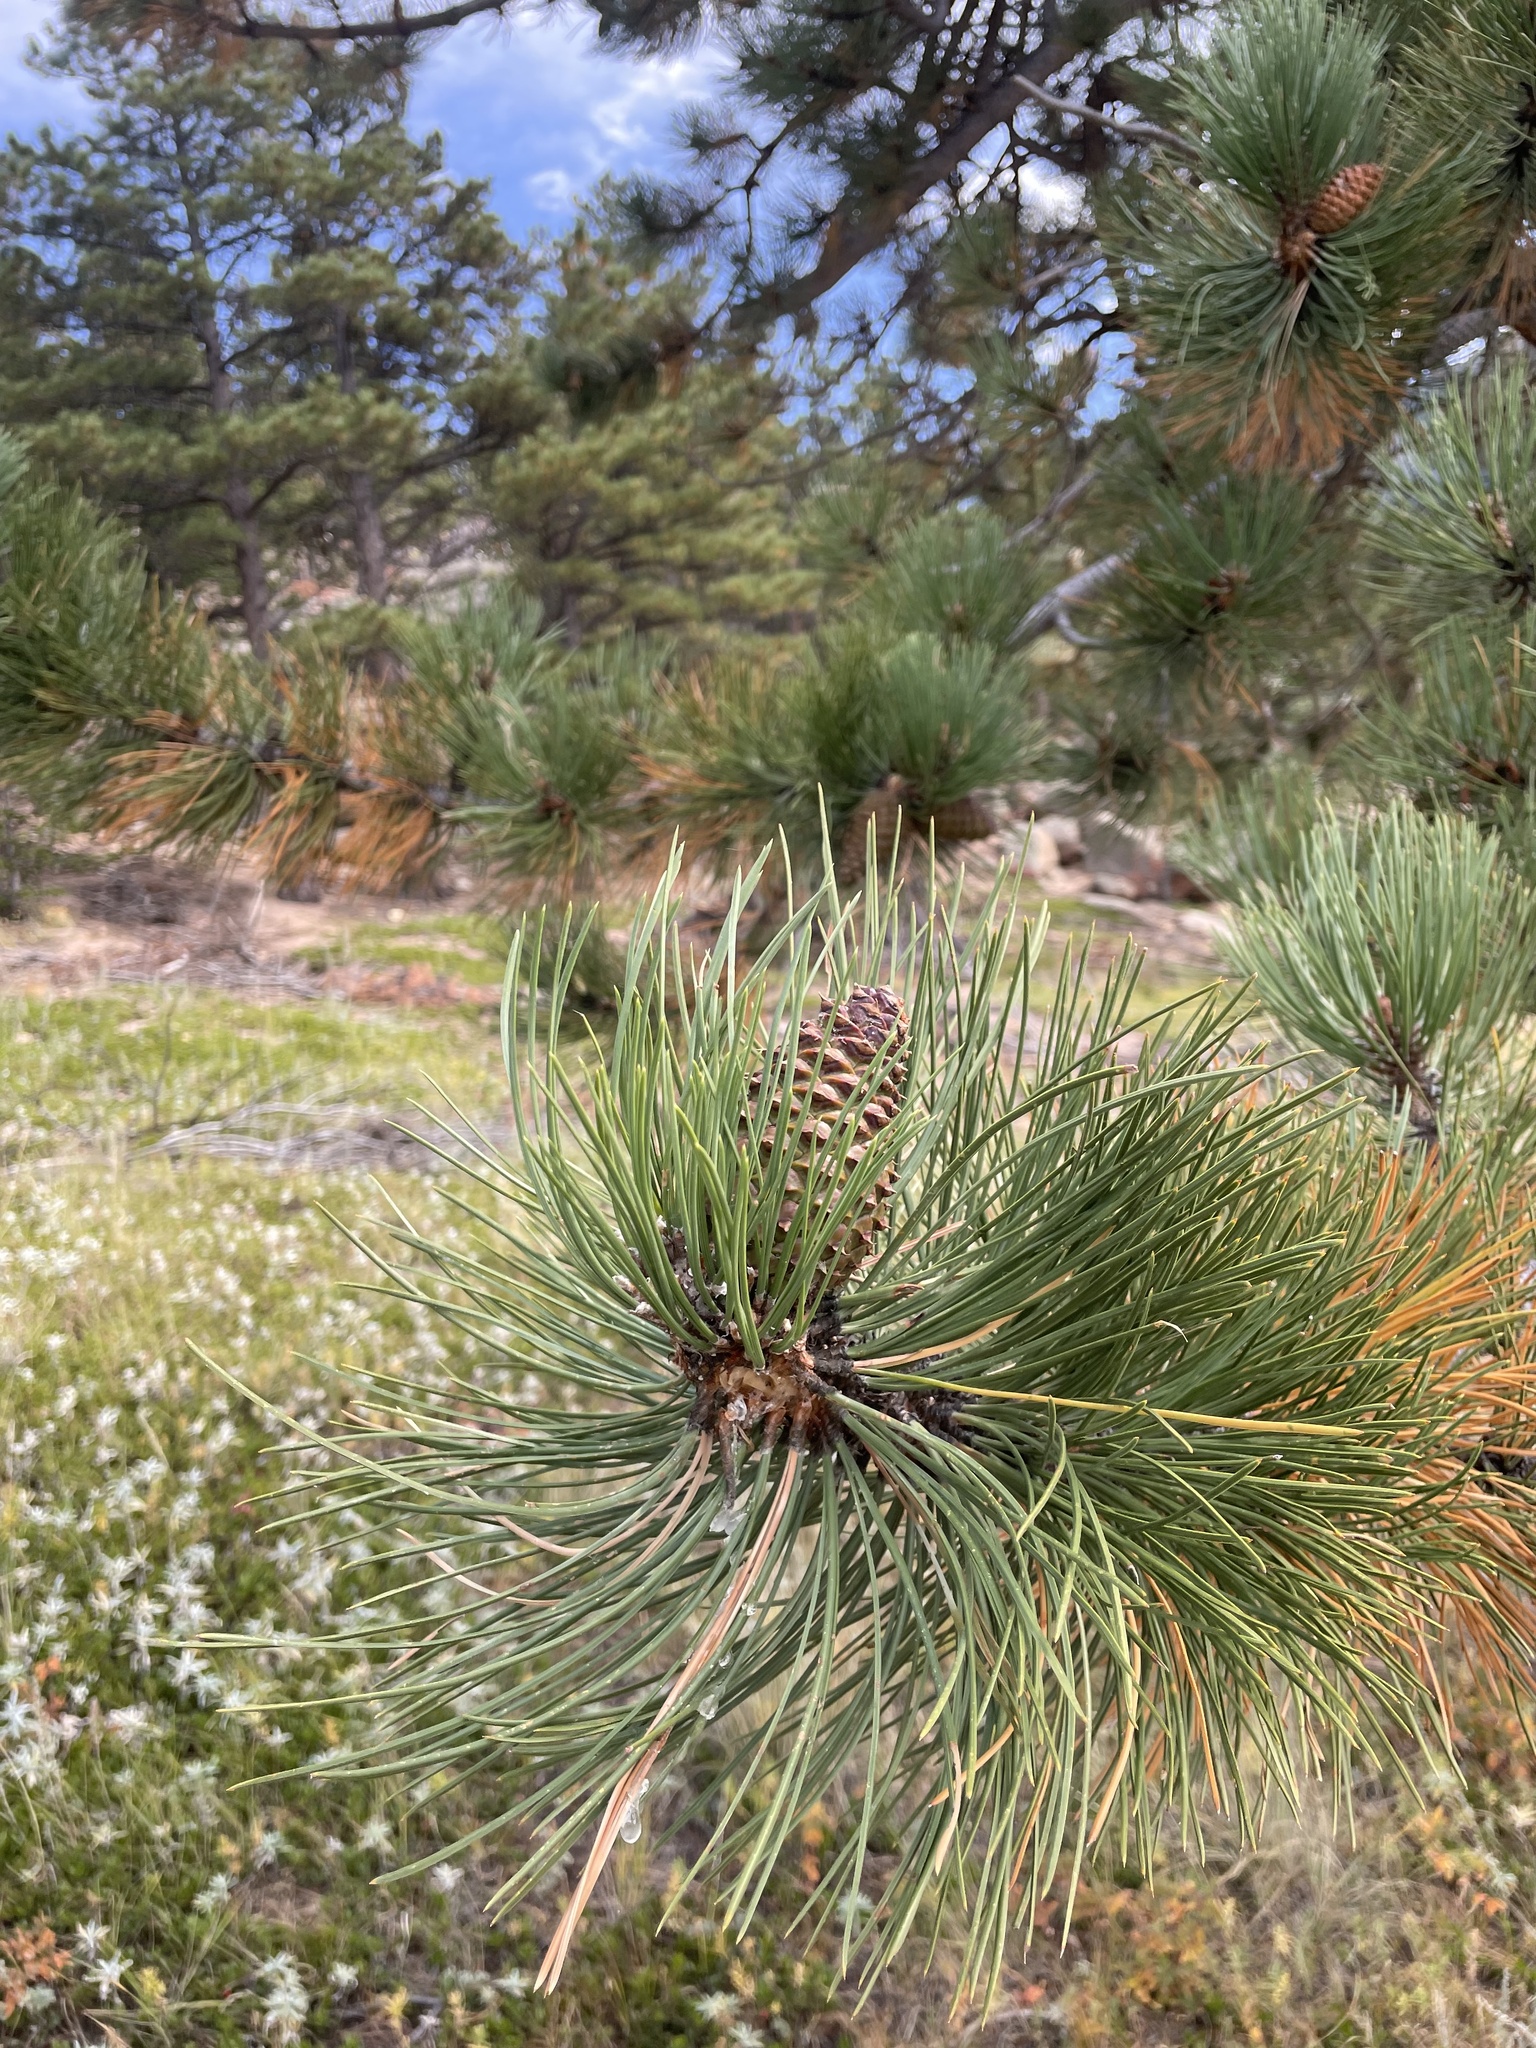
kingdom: Plantae
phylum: Tracheophyta
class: Pinopsida
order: Pinales
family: Pinaceae
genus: Pinus
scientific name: Pinus ponderosa
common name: Western yellow-pine
